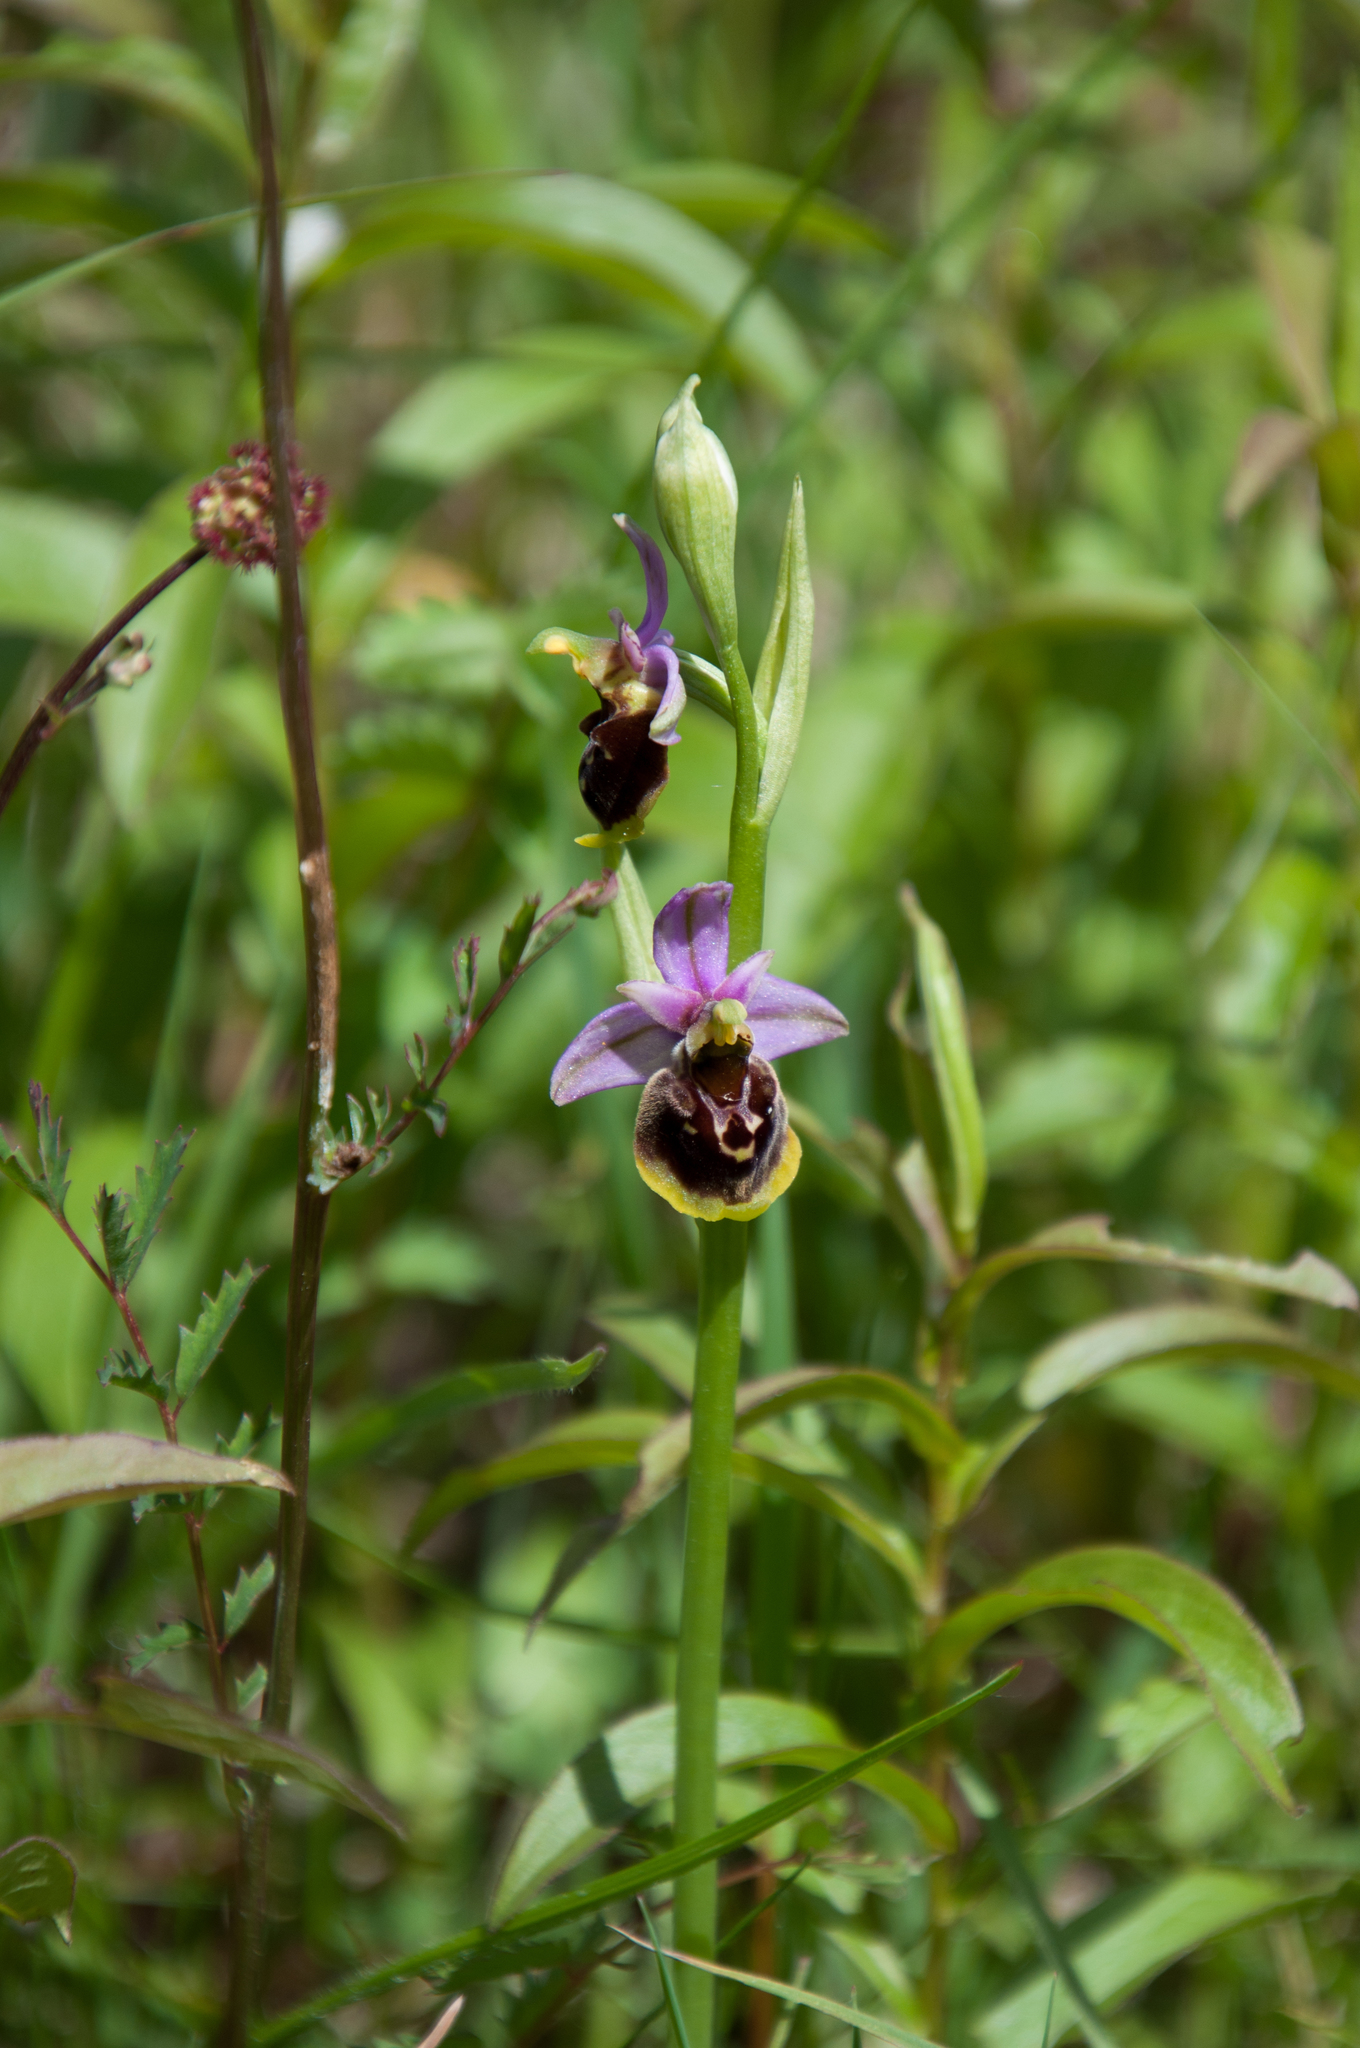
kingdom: Plantae
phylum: Tracheophyta
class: Liliopsida
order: Asparagales
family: Orchidaceae
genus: Ophrys
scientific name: Ophrys holosericea
